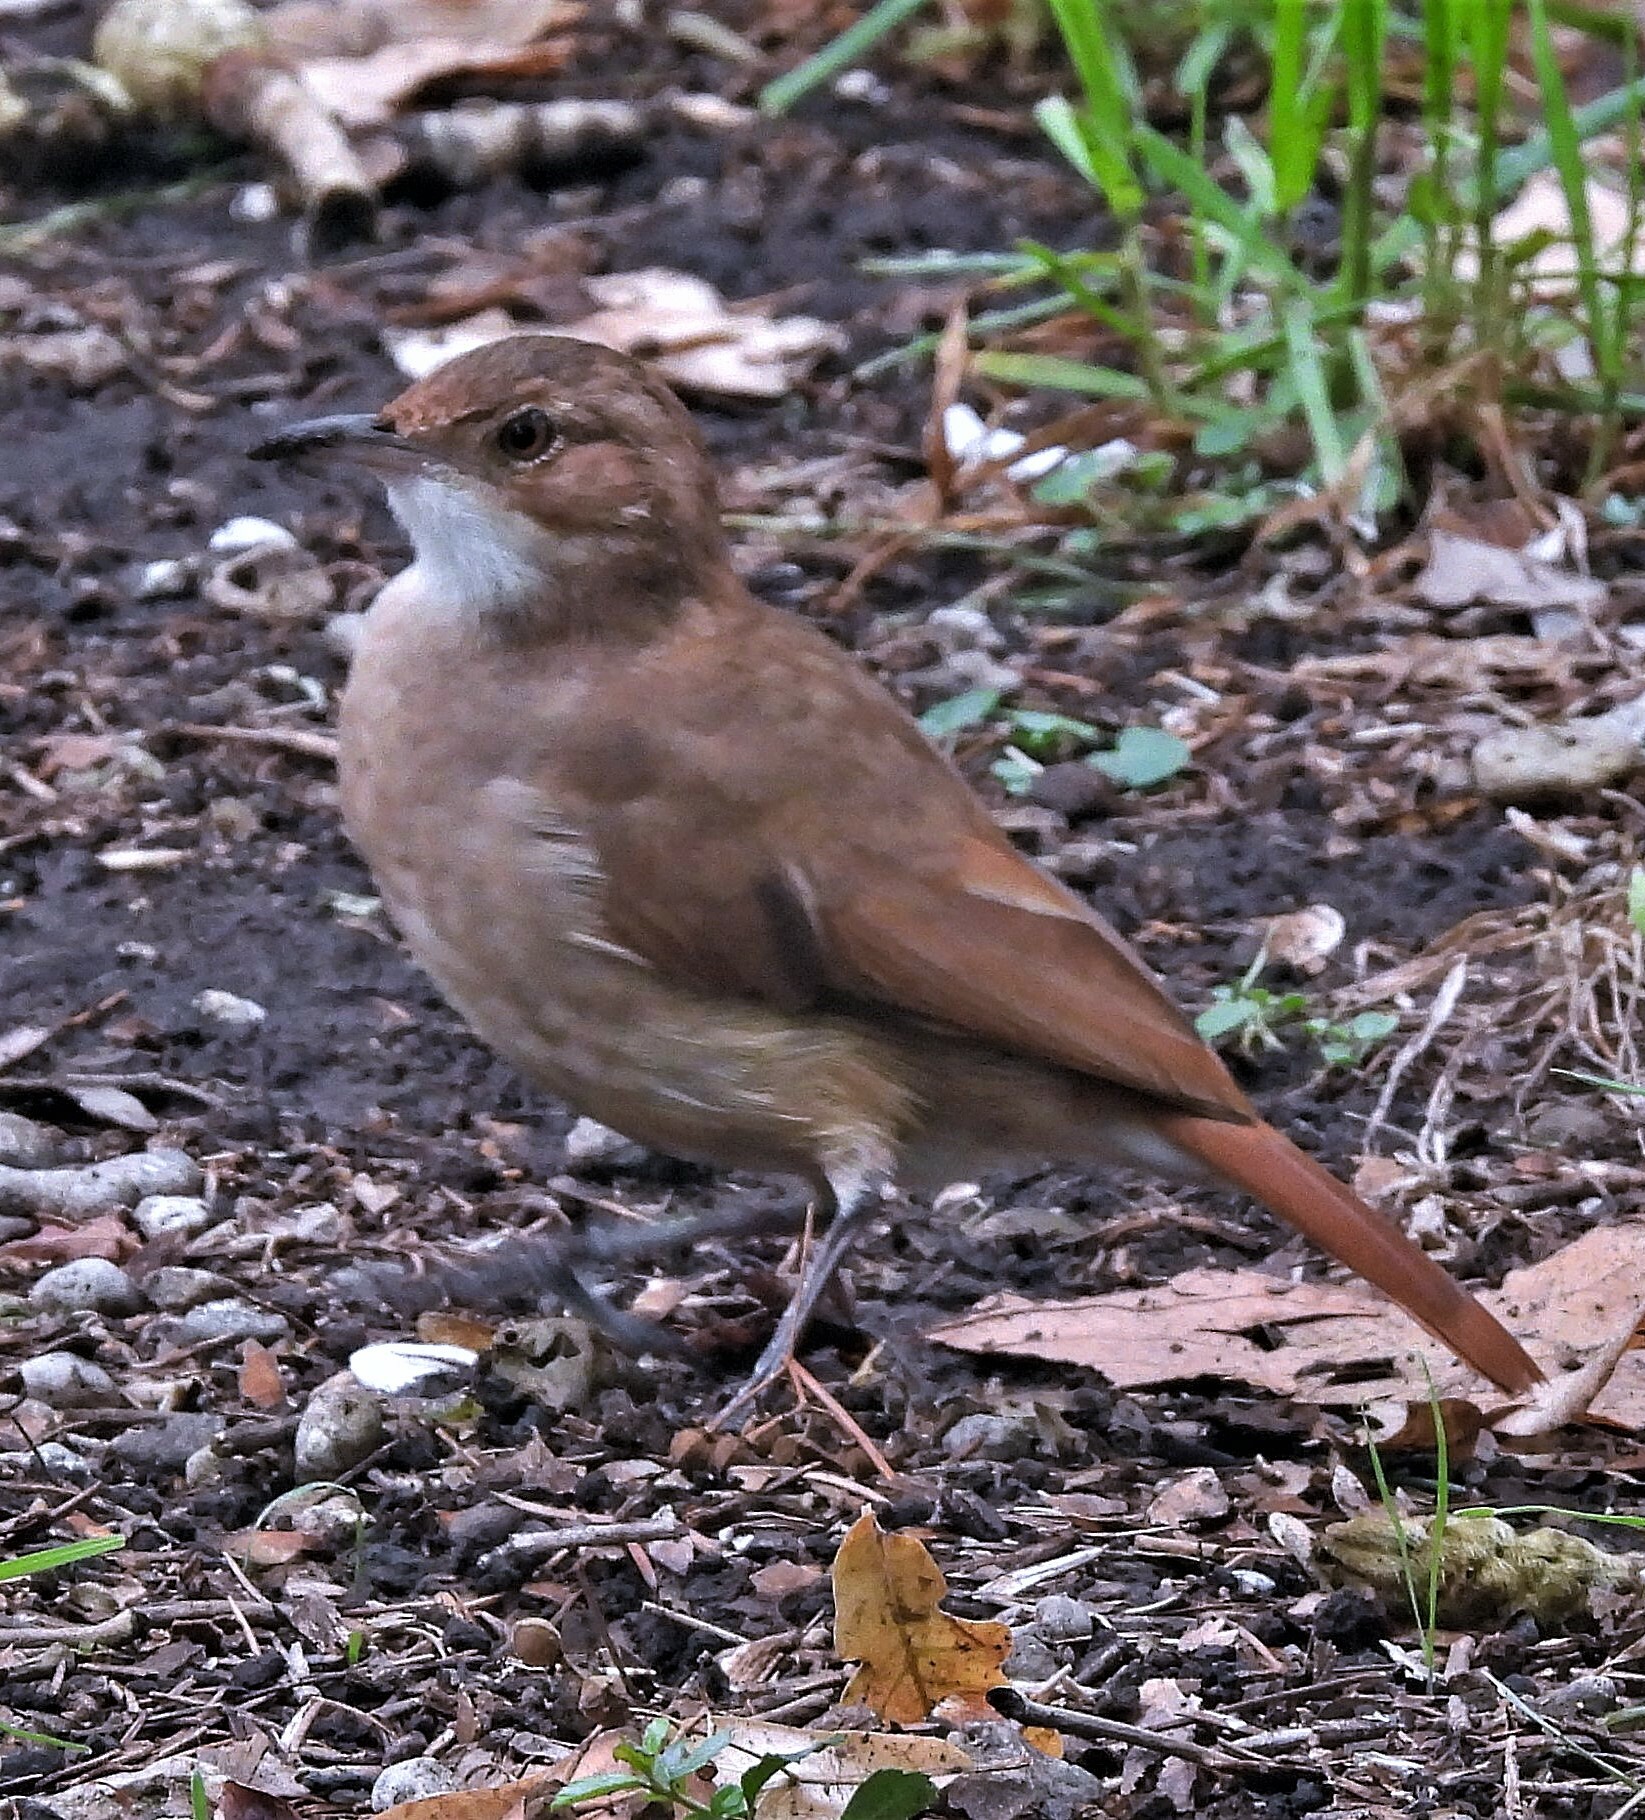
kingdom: Animalia
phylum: Chordata
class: Aves
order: Passeriformes
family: Furnariidae
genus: Furnarius
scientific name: Furnarius rufus
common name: Rufous hornero
